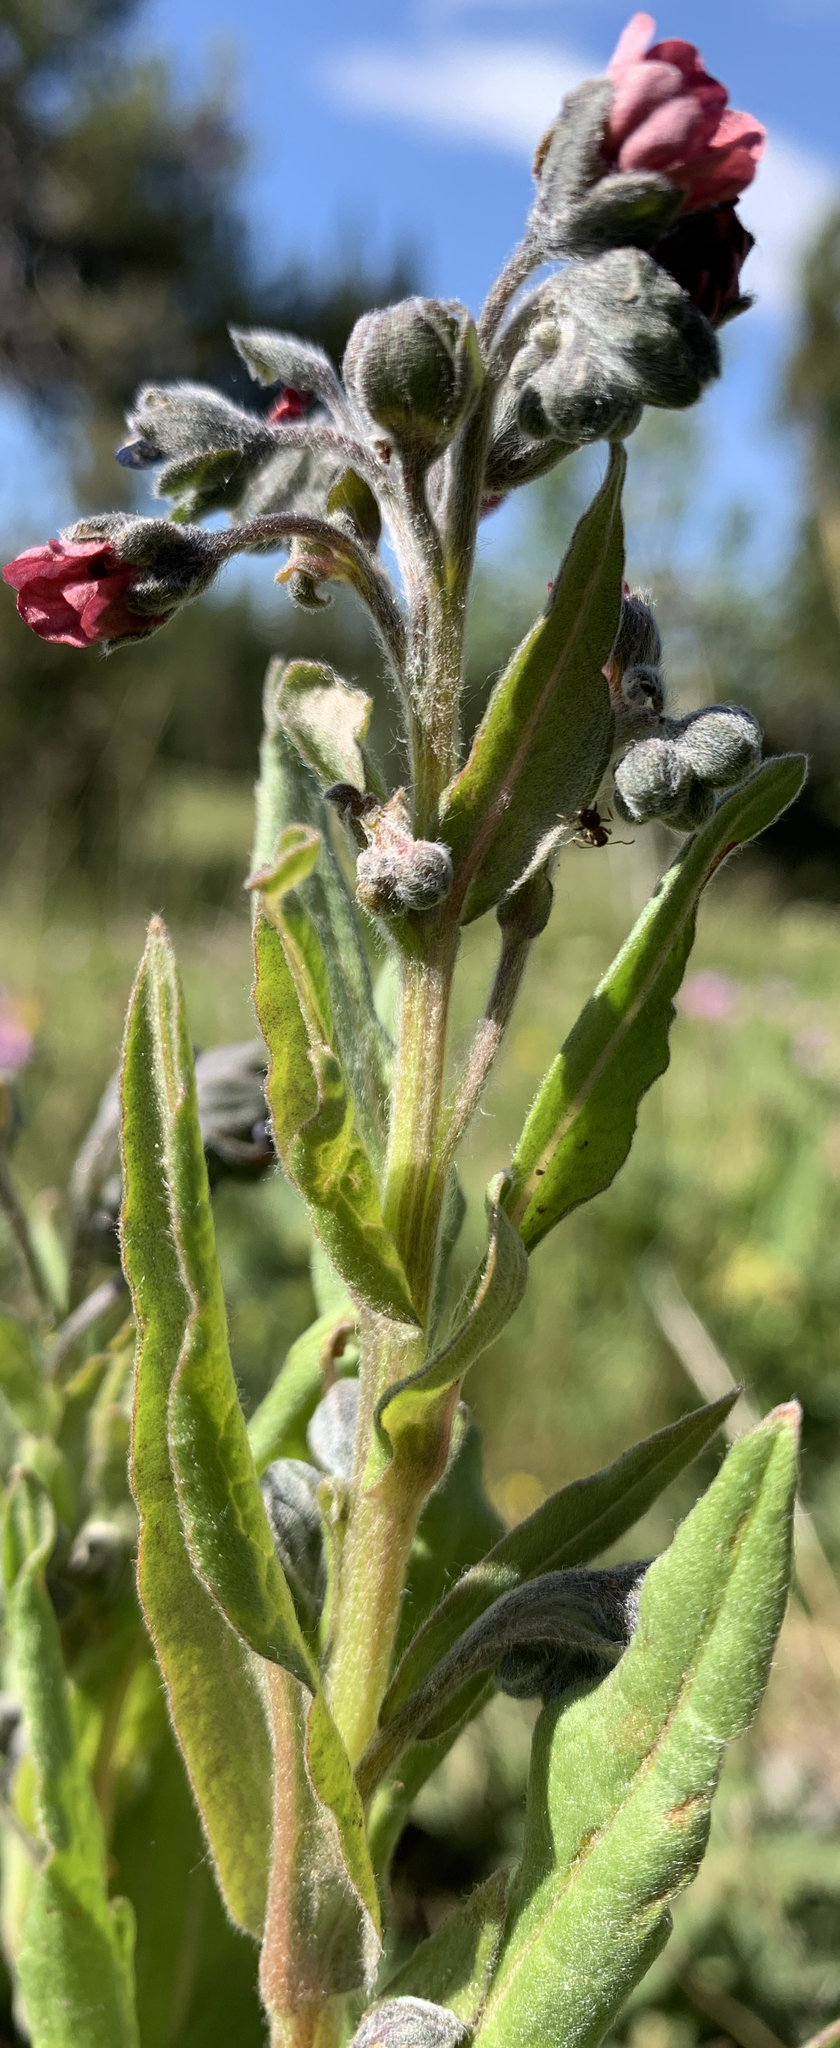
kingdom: Plantae
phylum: Tracheophyta
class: Magnoliopsida
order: Boraginales
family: Boraginaceae
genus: Cynoglossum
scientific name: Cynoglossum officinale
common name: Hound's-tongue
